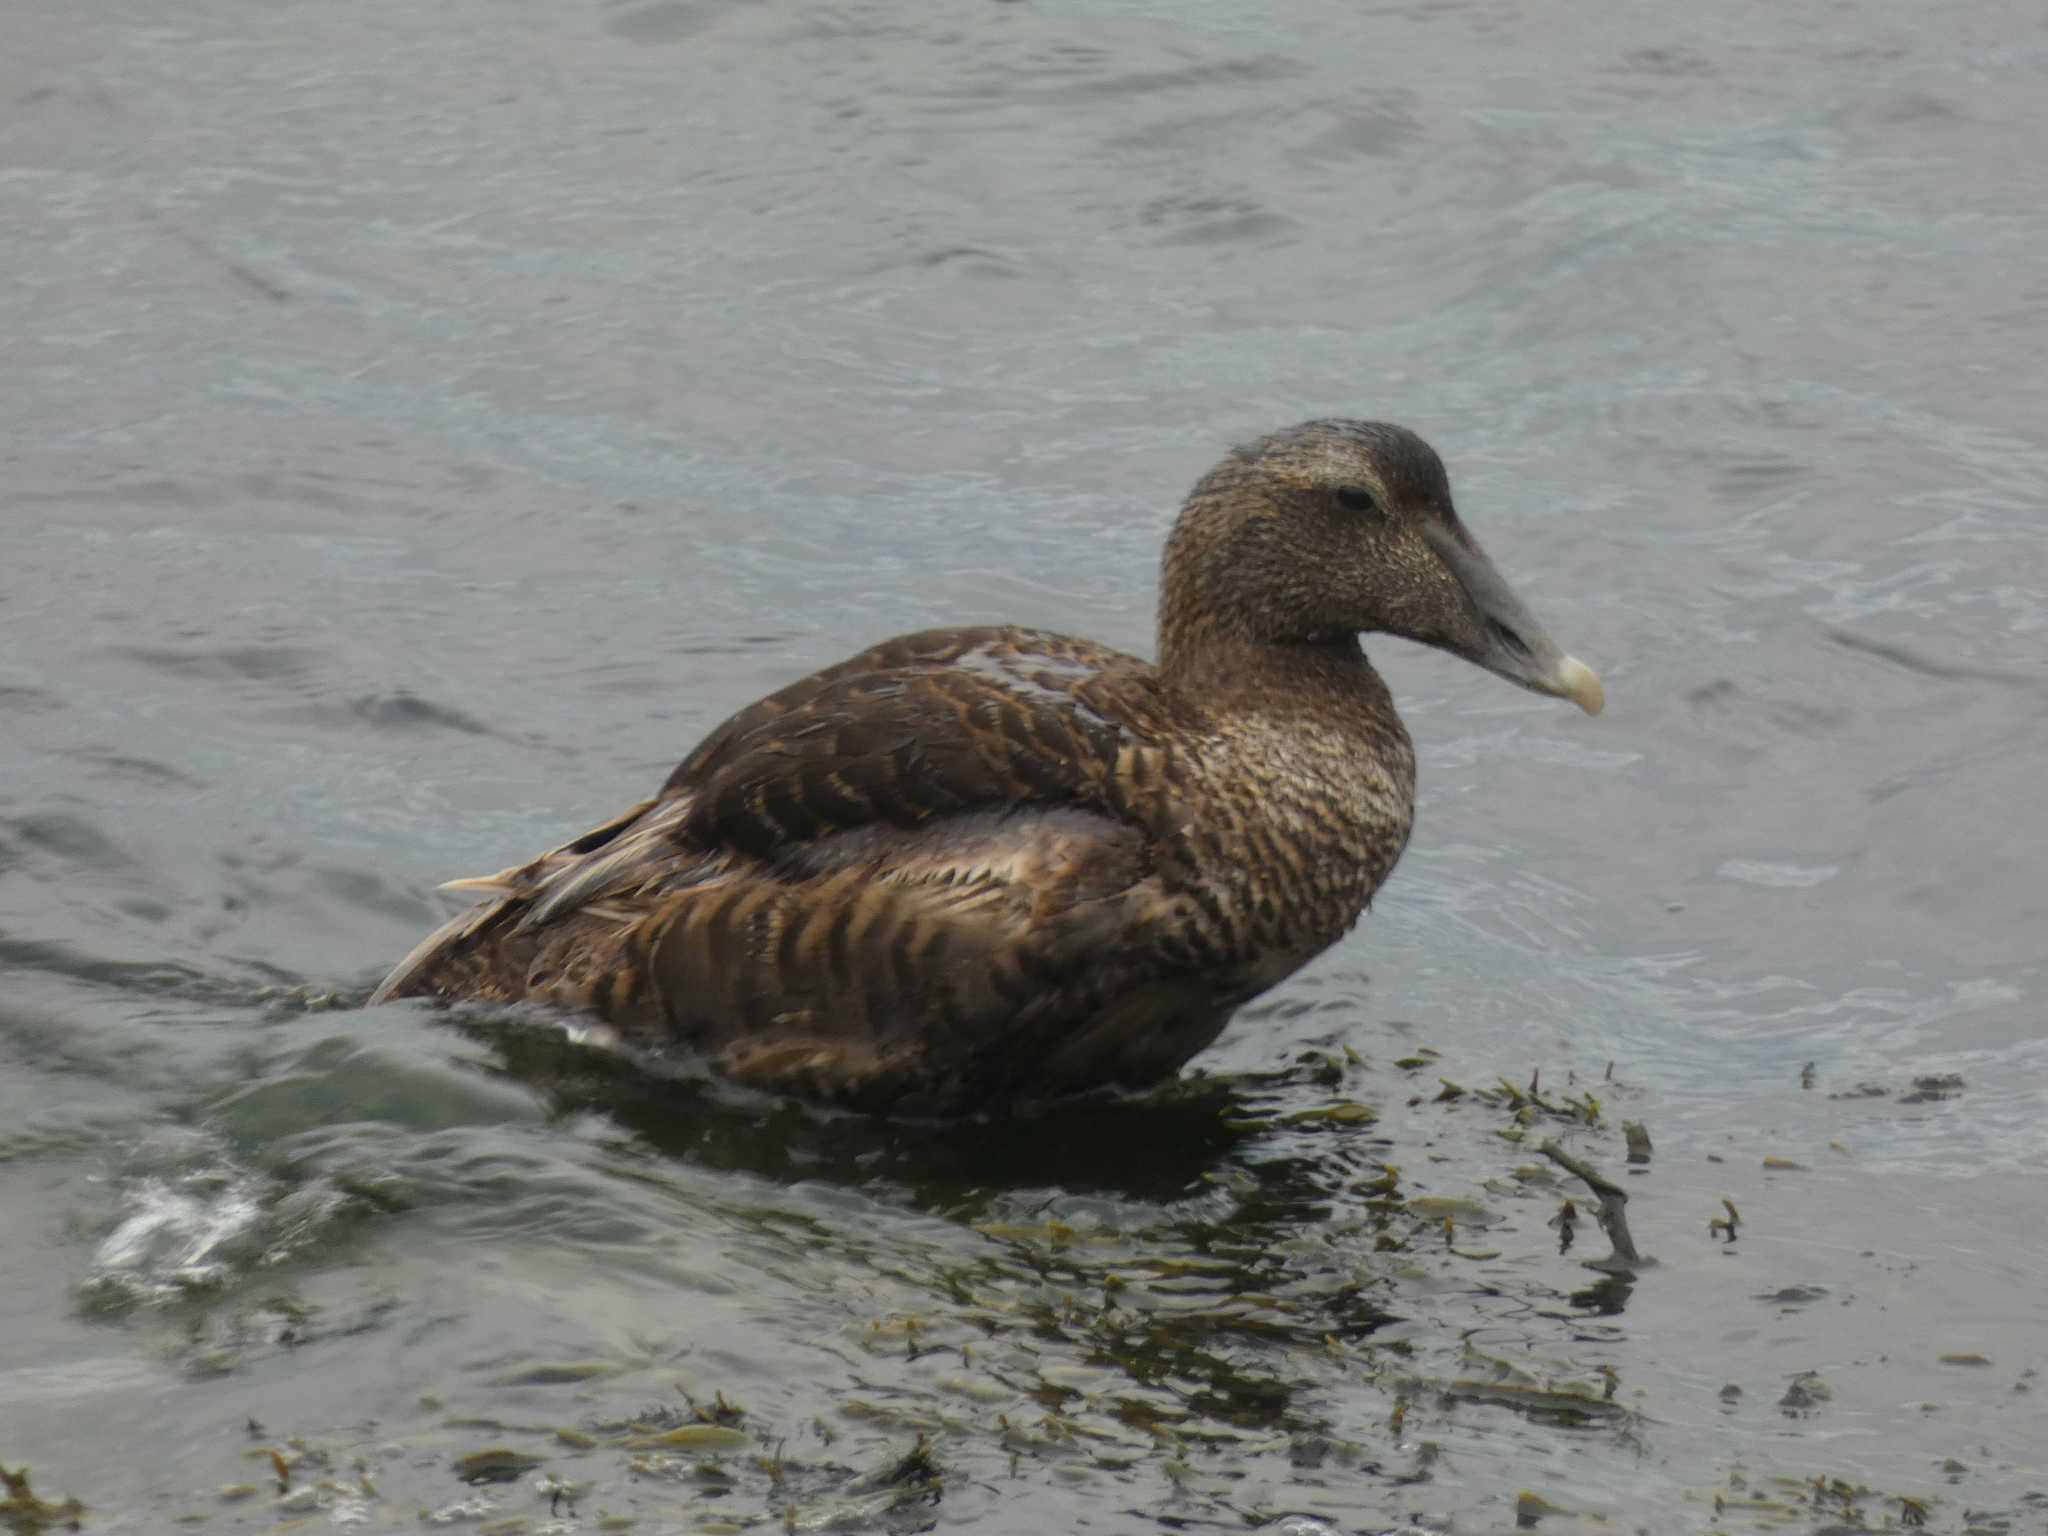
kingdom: Animalia
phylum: Chordata
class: Aves
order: Anseriformes
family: Anatidae
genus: Somateria
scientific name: Somateria mollissima
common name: Common eider
